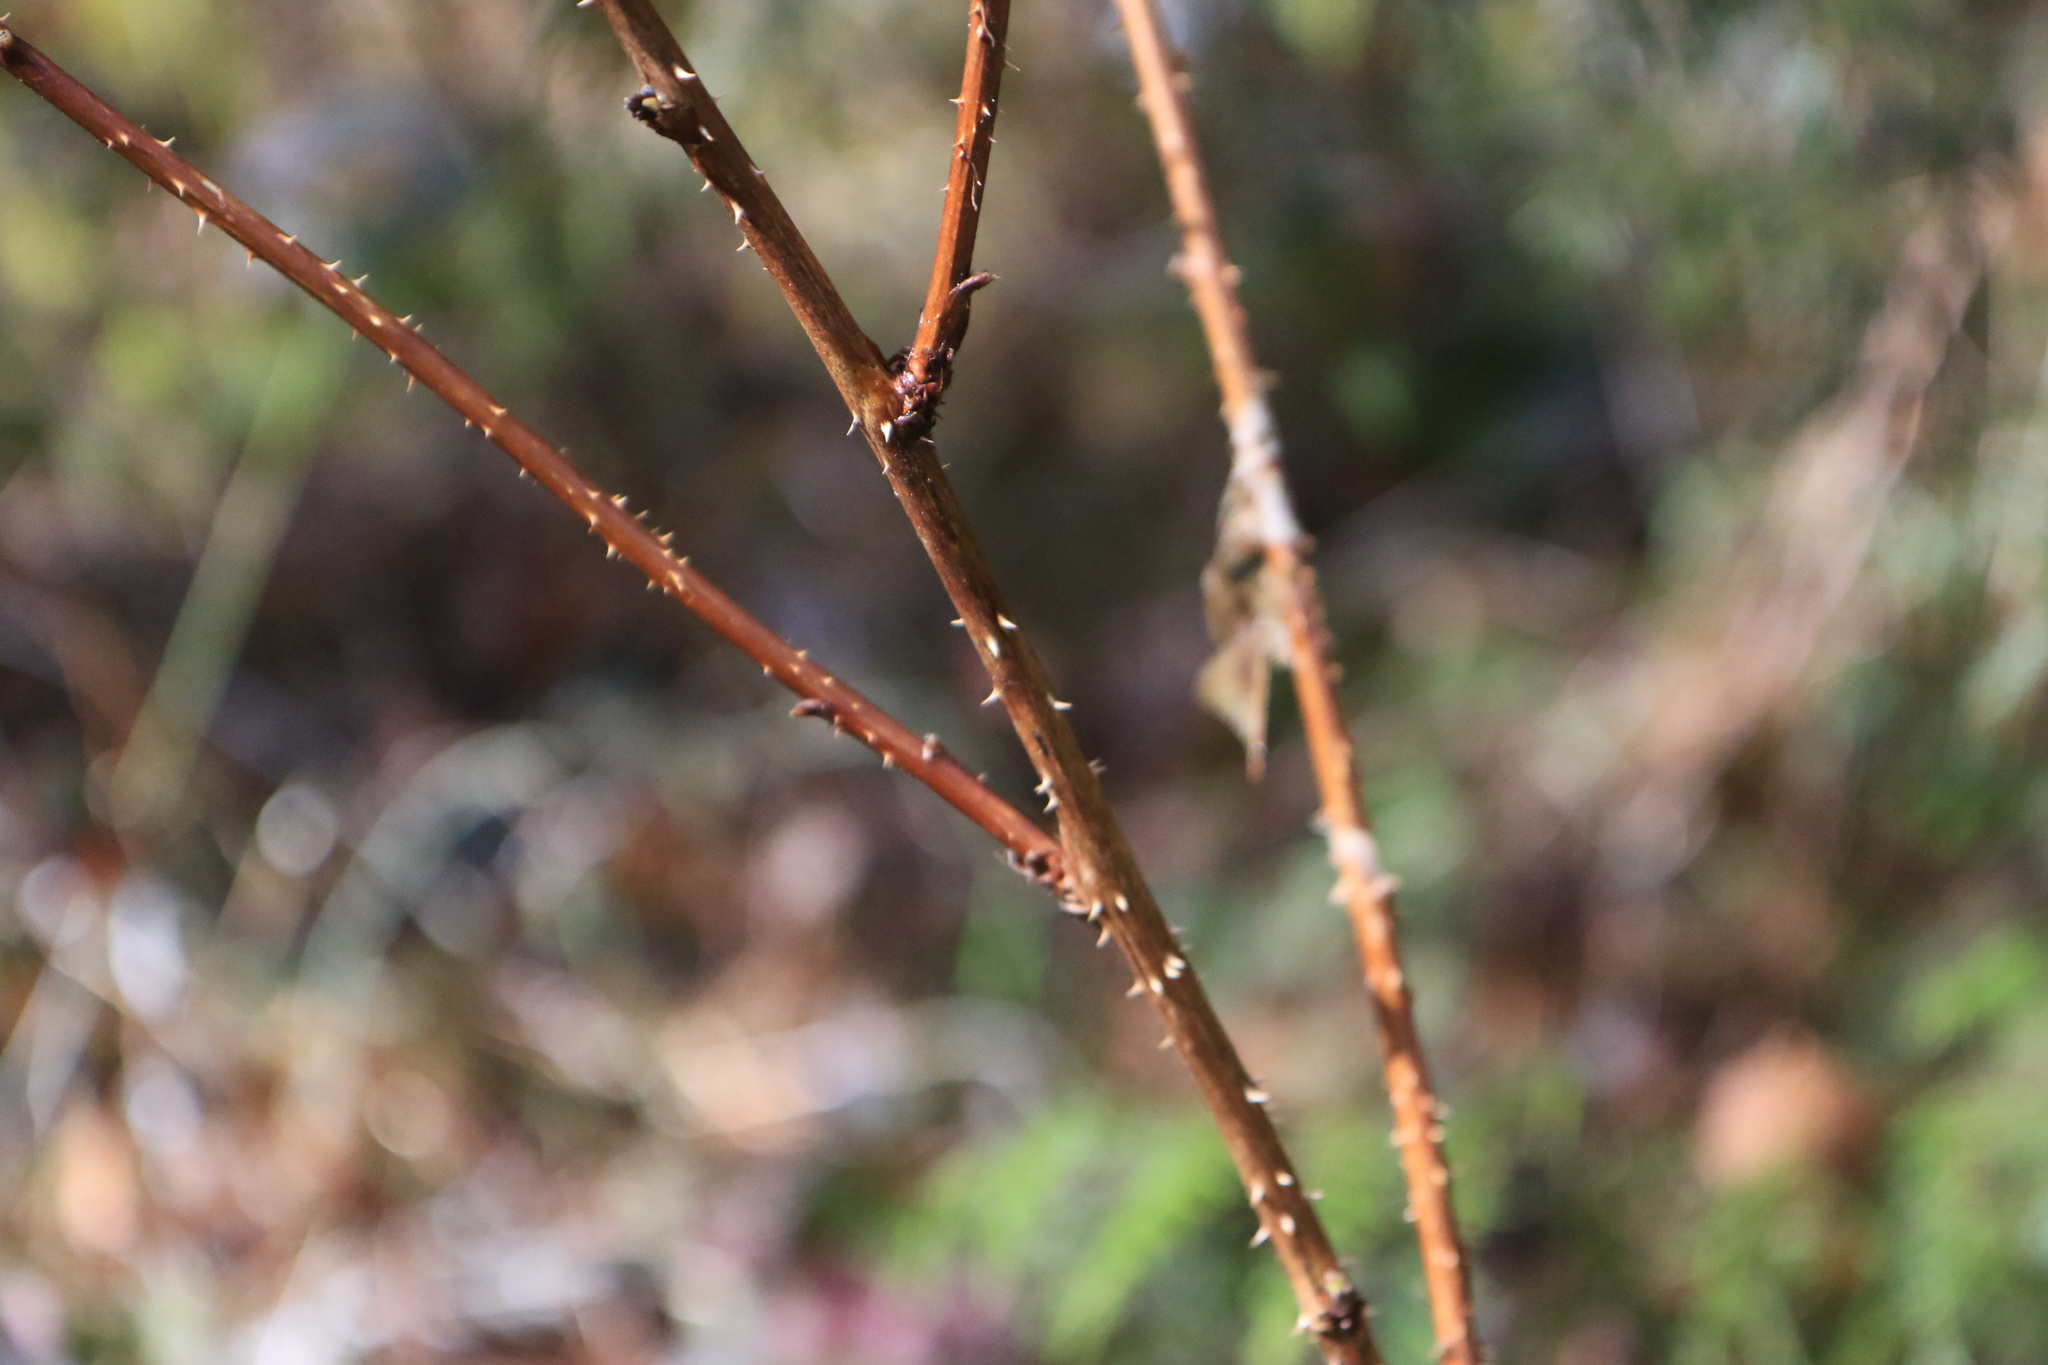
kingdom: Plantae
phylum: Tracheophyta
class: Magnoliopsida
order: Rosales
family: Rosaceae
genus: Rubus
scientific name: Rubus spectabilis
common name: Salmonberry
